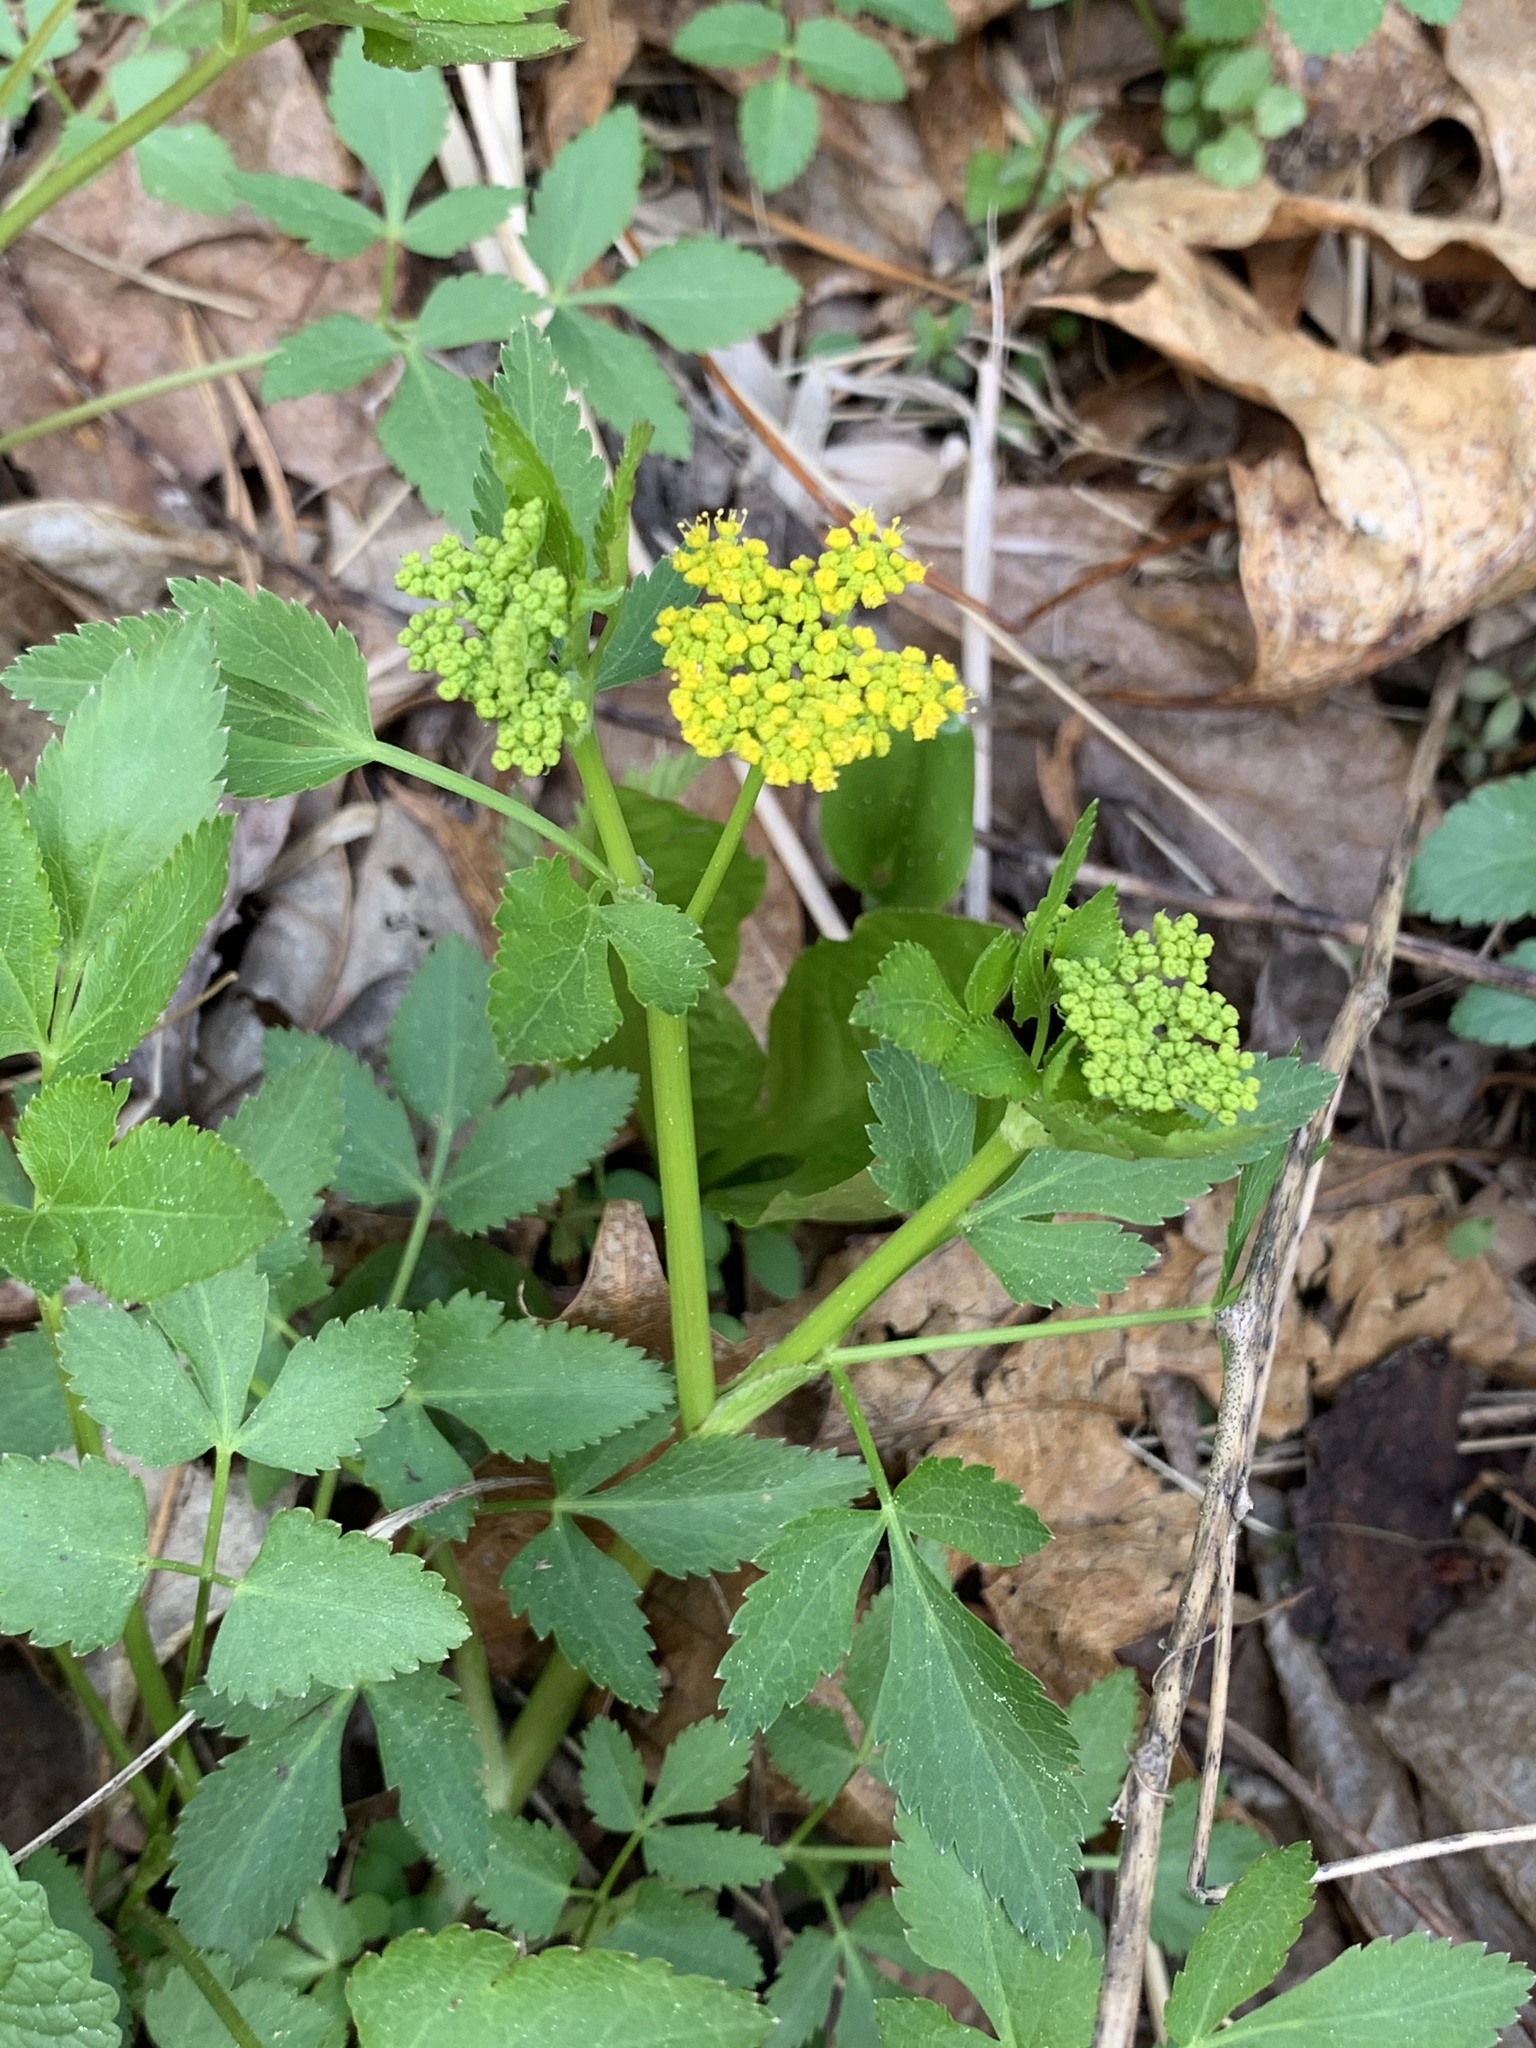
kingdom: Plantae
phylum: Tracheophyta
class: Magnoliopsida
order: Apiales
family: Apiaceae
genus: Zizia
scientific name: Zizia aurea
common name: Golden alexanders
